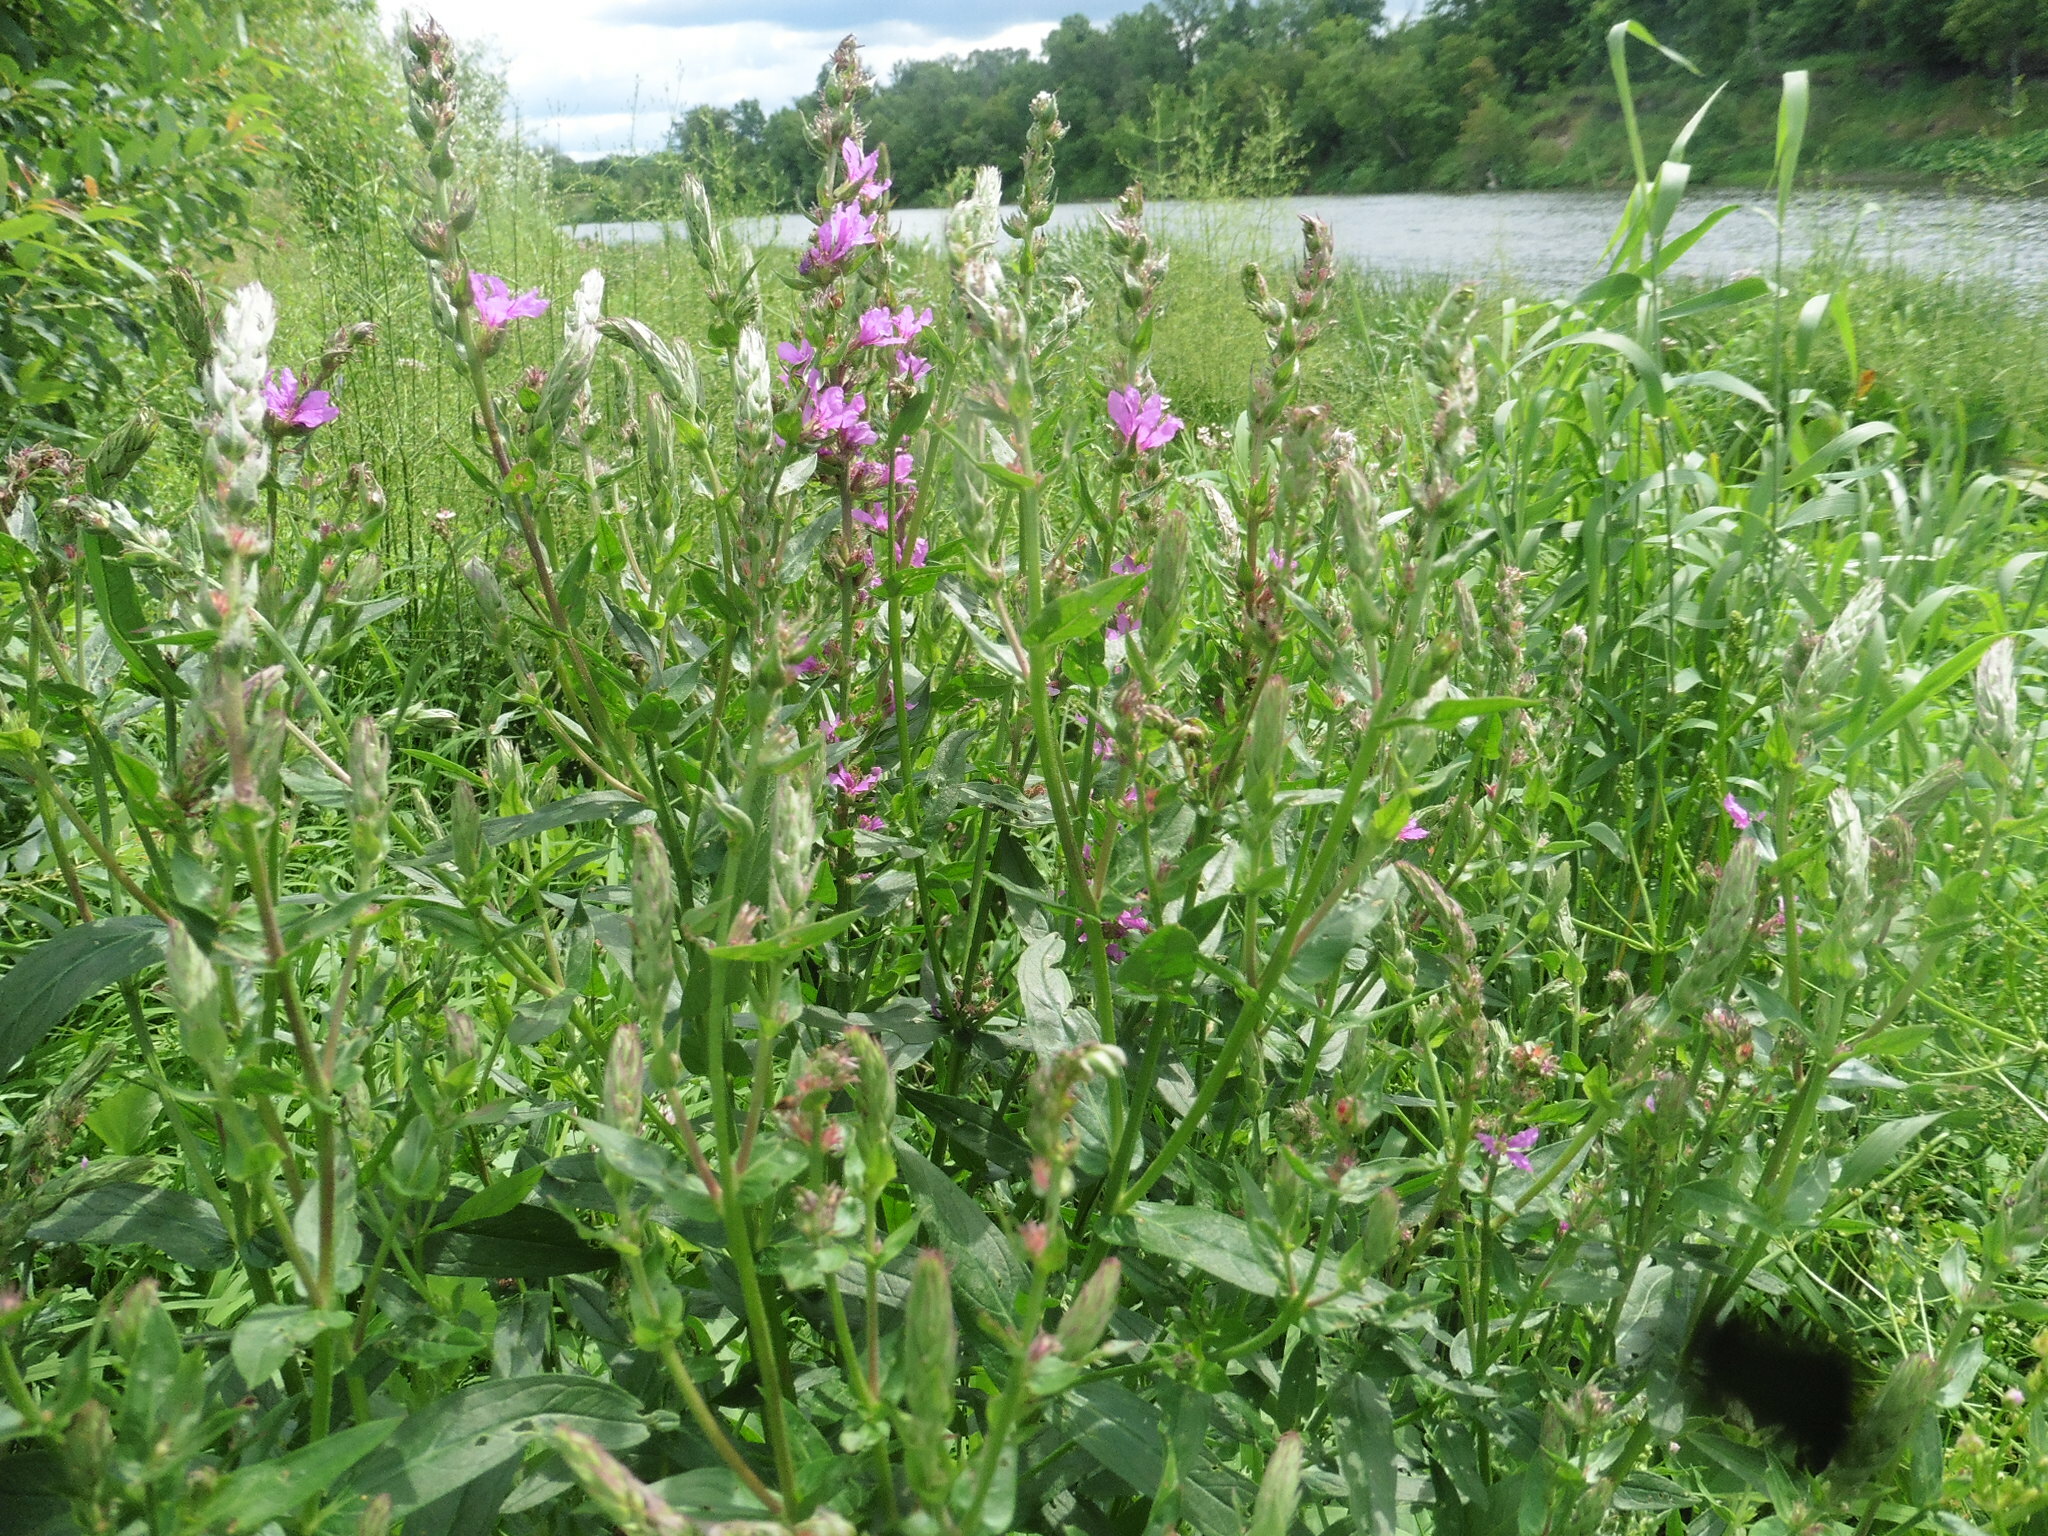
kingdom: Plantae
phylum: Tracheophyta
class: Magnoliopsida
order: Myrtales
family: Lythraceae
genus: Lythrum
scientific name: Lythrum salicaria
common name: Purple loosestrife
